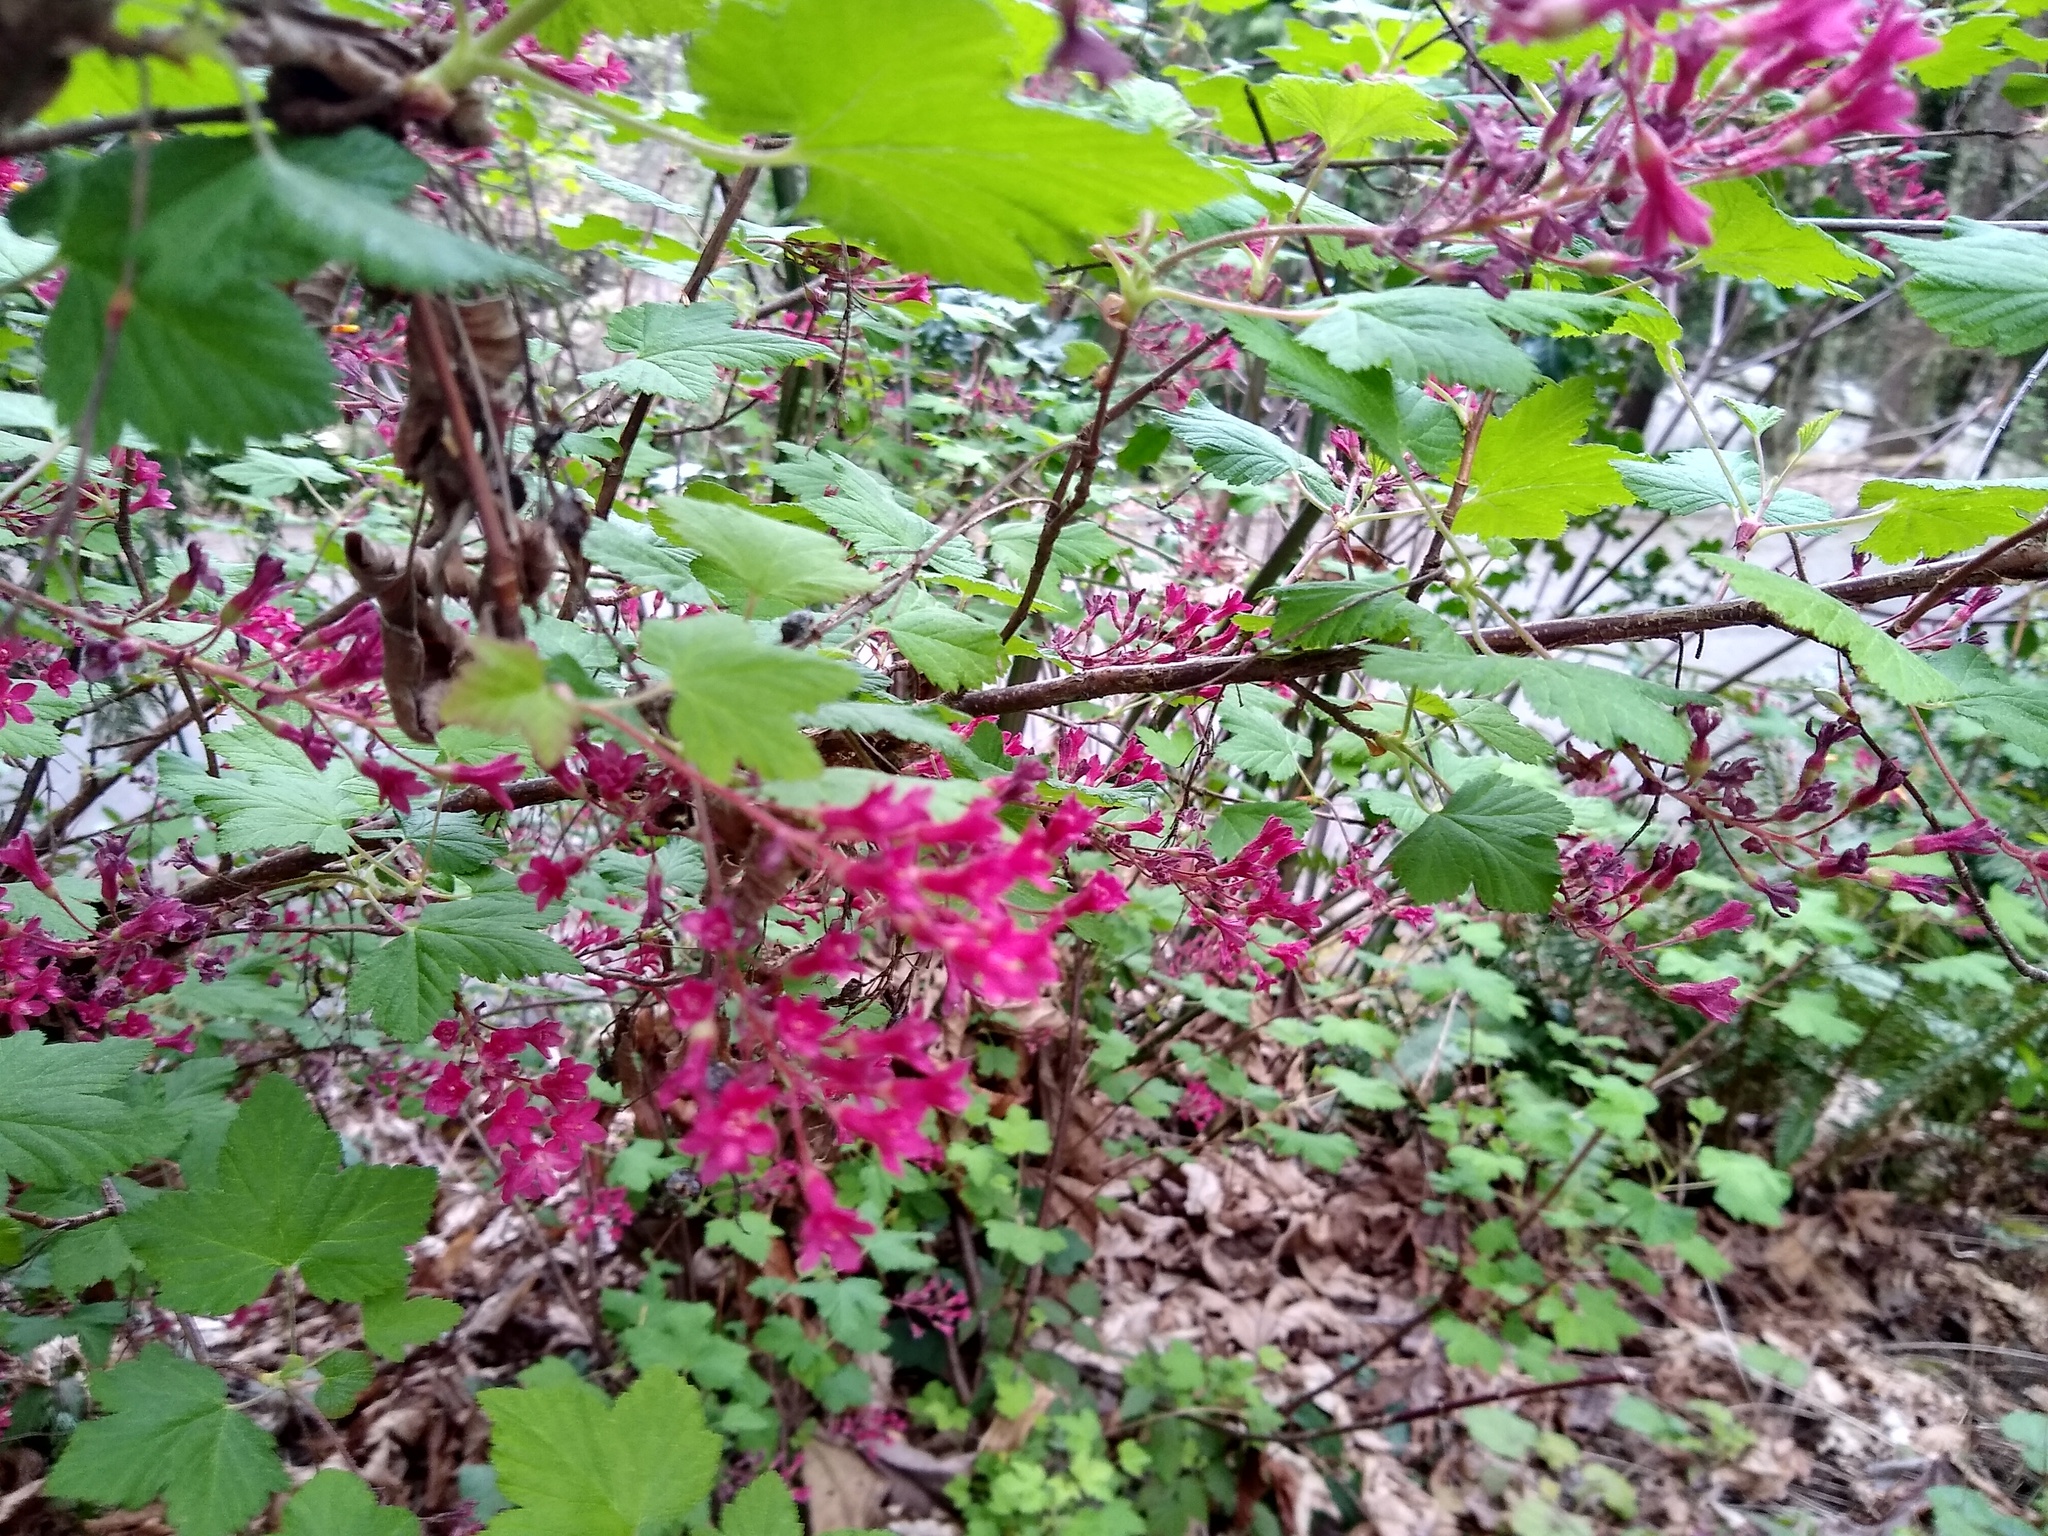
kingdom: Plantae
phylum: Tracheophyta
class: Magnoliopsida
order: Saxifragales
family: Grossulariaceae
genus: Ribes
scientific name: Ribes sanguineum
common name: Flowering currant
